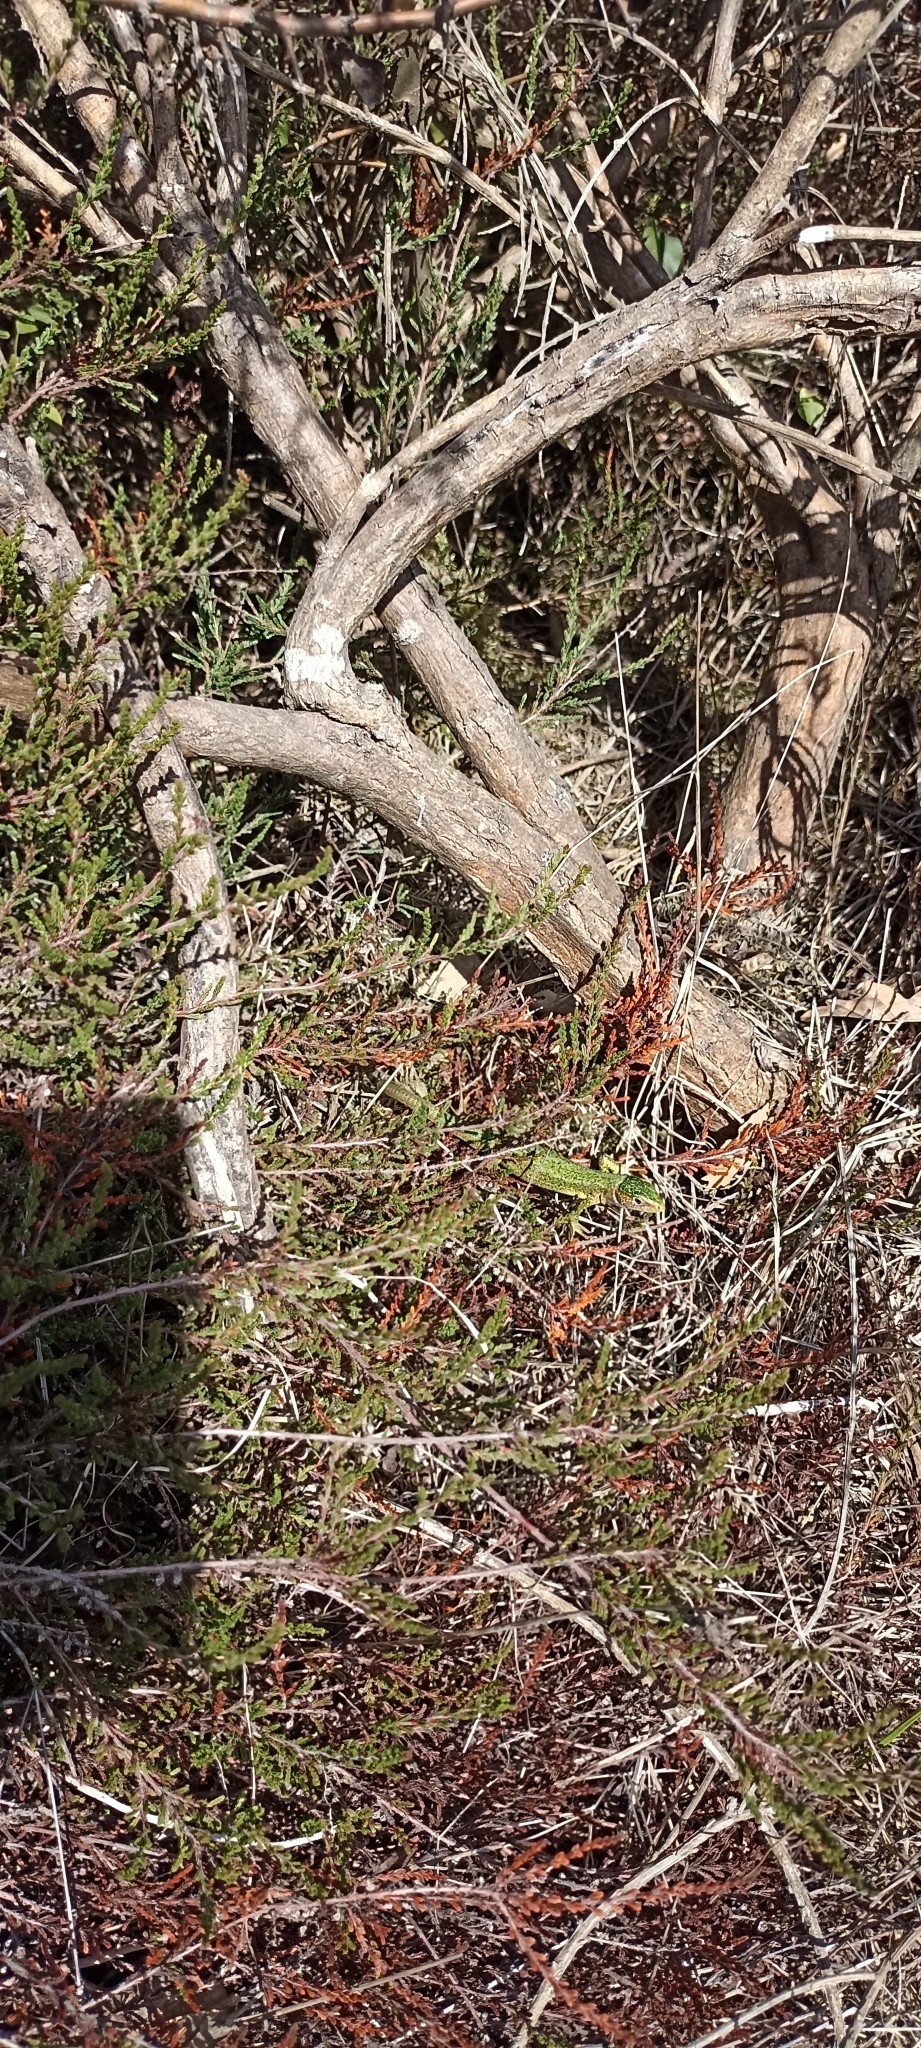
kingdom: Animalia
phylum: Chordata
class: Squamata
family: Lacertidae
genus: Lacerta
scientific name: Lacerta bilineata
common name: Western green lizard
